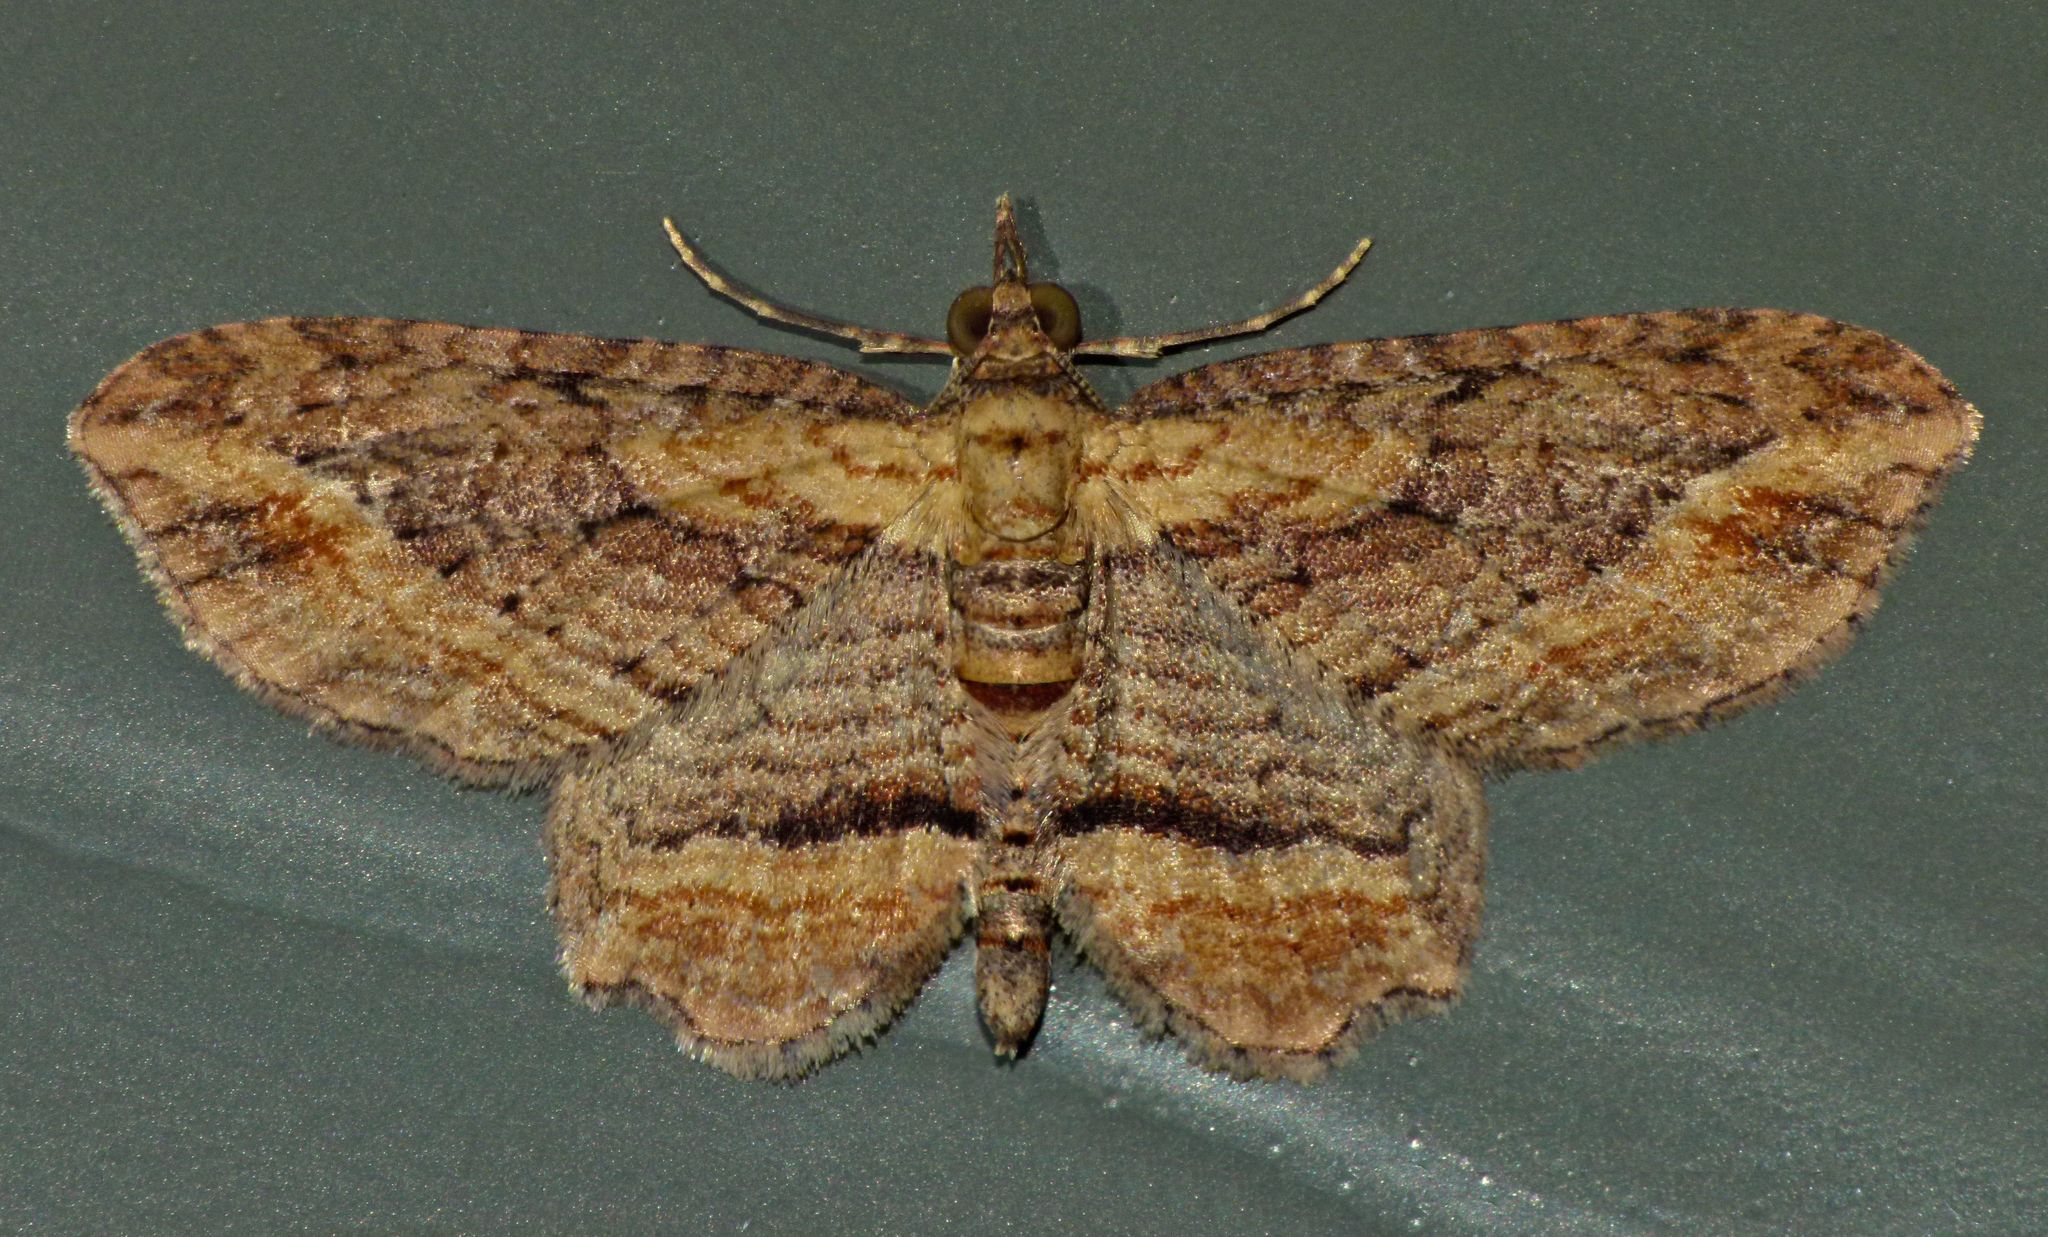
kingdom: Animalia
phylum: Arthropoda
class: Insecta
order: Lepidoptera
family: Geometridae
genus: Chloroclystis
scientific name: Chloroclystis filata
